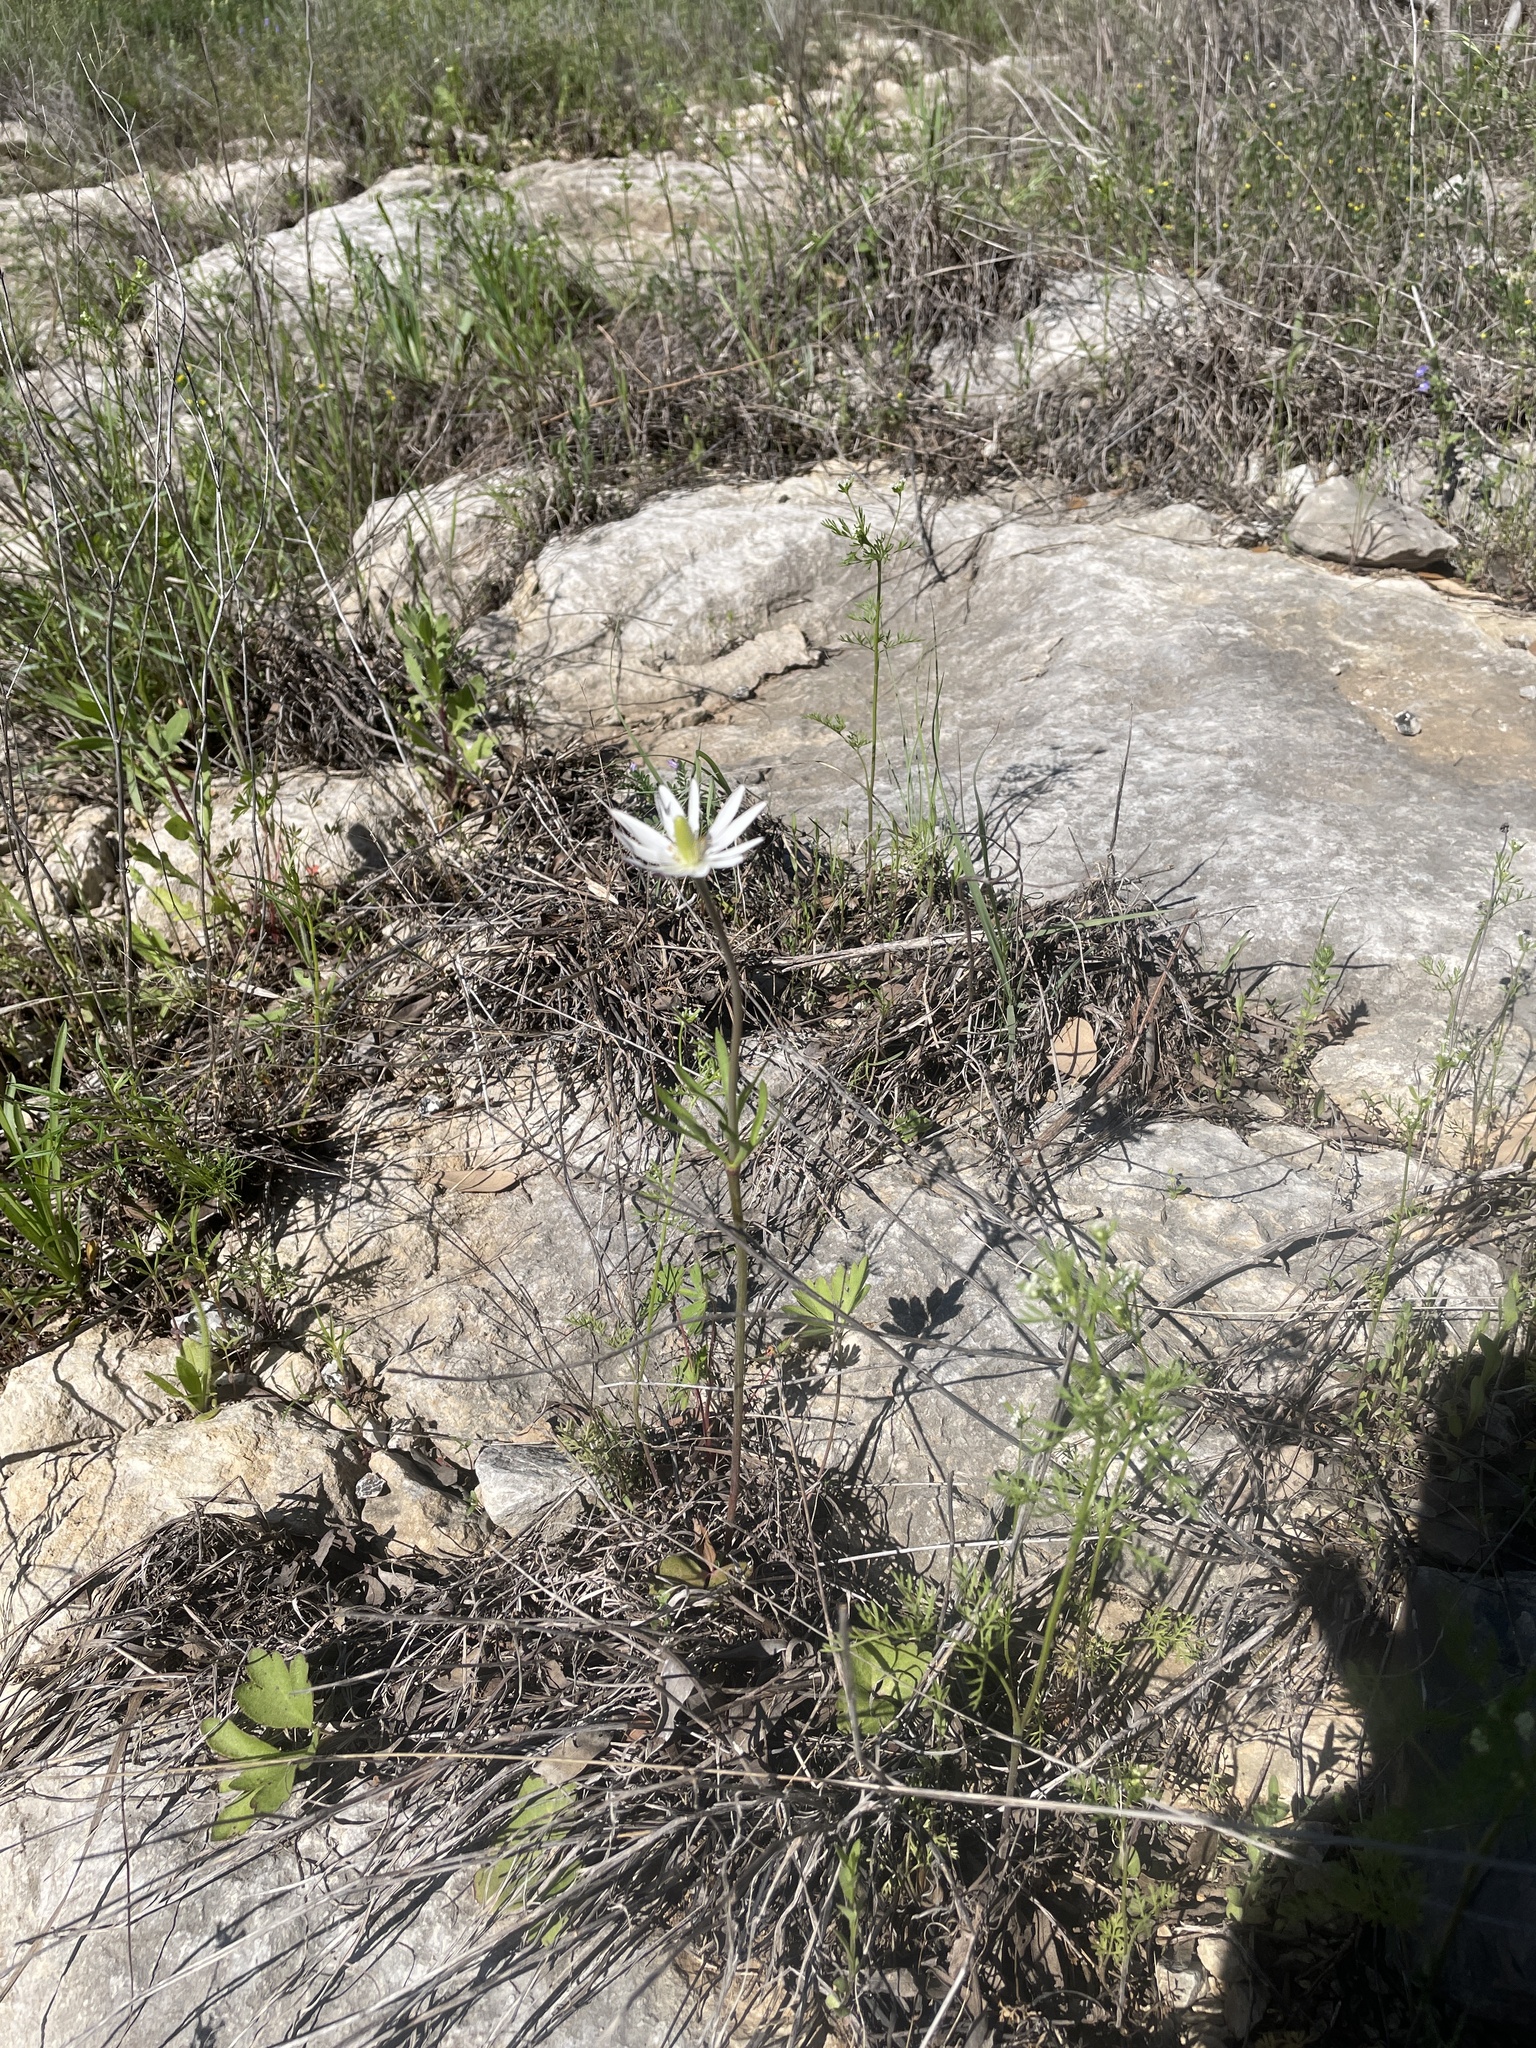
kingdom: Plantae
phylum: Tracheophyta
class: Magnoliopsida
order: Ranunculales
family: Ranunculaceae
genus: Anemone
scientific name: Anemone berlandieri
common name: Ten-petal anemone
